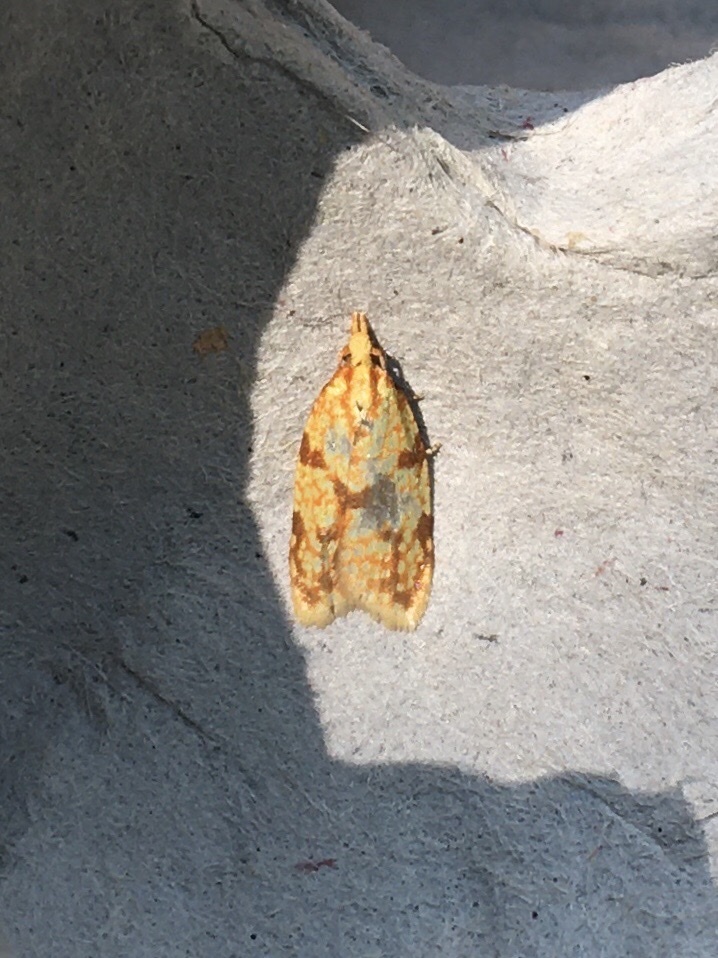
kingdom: Animalia
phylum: Arthropoda
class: Insecta
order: Lepidoptera
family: Tortricidae
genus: Sparganothis
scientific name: Sparganothis sulfureana
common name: Sparganothis fruitworm moth
